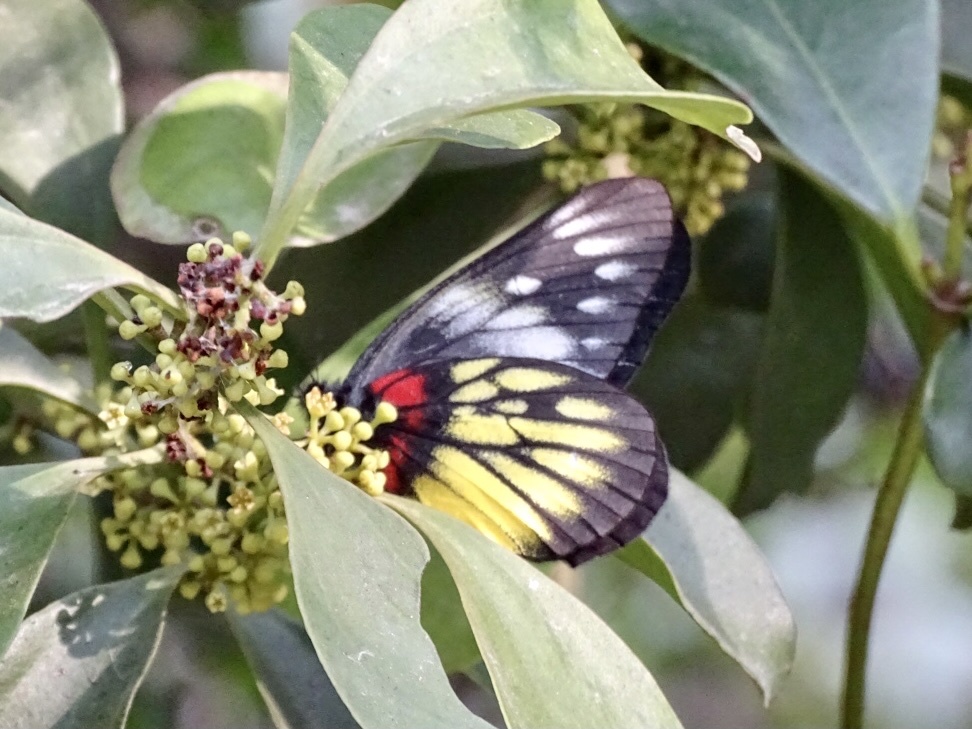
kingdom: Animalia
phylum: Arthropoda
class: Insecta
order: Lepidoptera
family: Pieridae
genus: Delias
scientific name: Delias pasithoe
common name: Red-base jezebel
